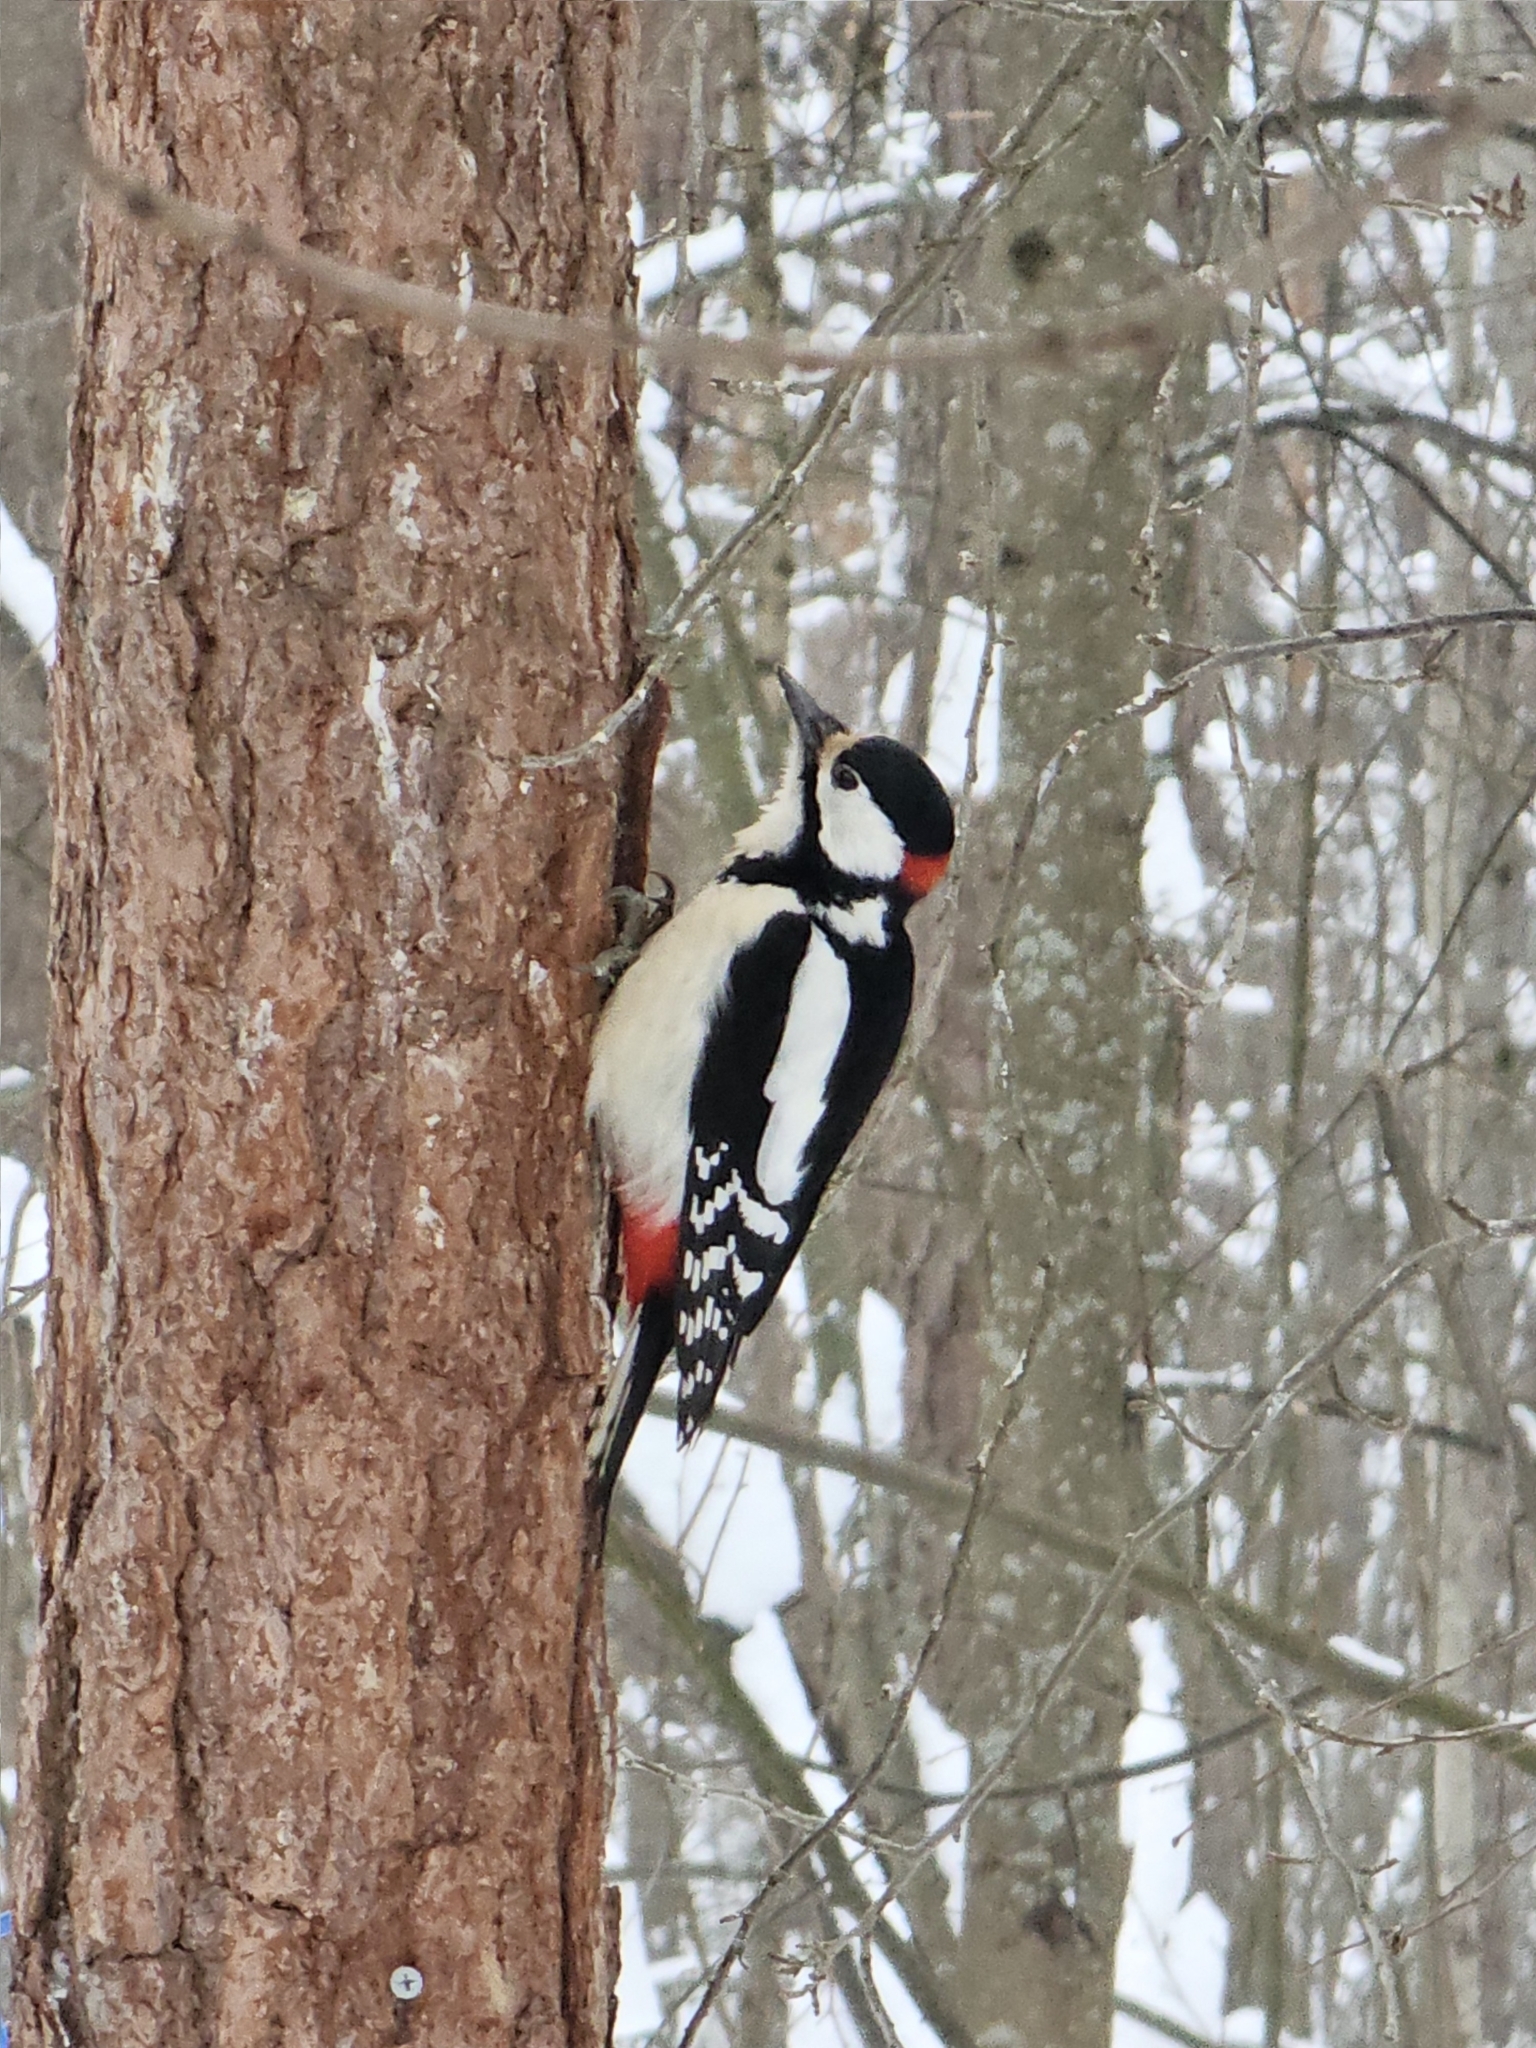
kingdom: Animalia
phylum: Chordata
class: Aves
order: Piciformes
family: Picidae
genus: Dendrocopos
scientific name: Dendrocopos major
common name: Great spotted woodpecker
